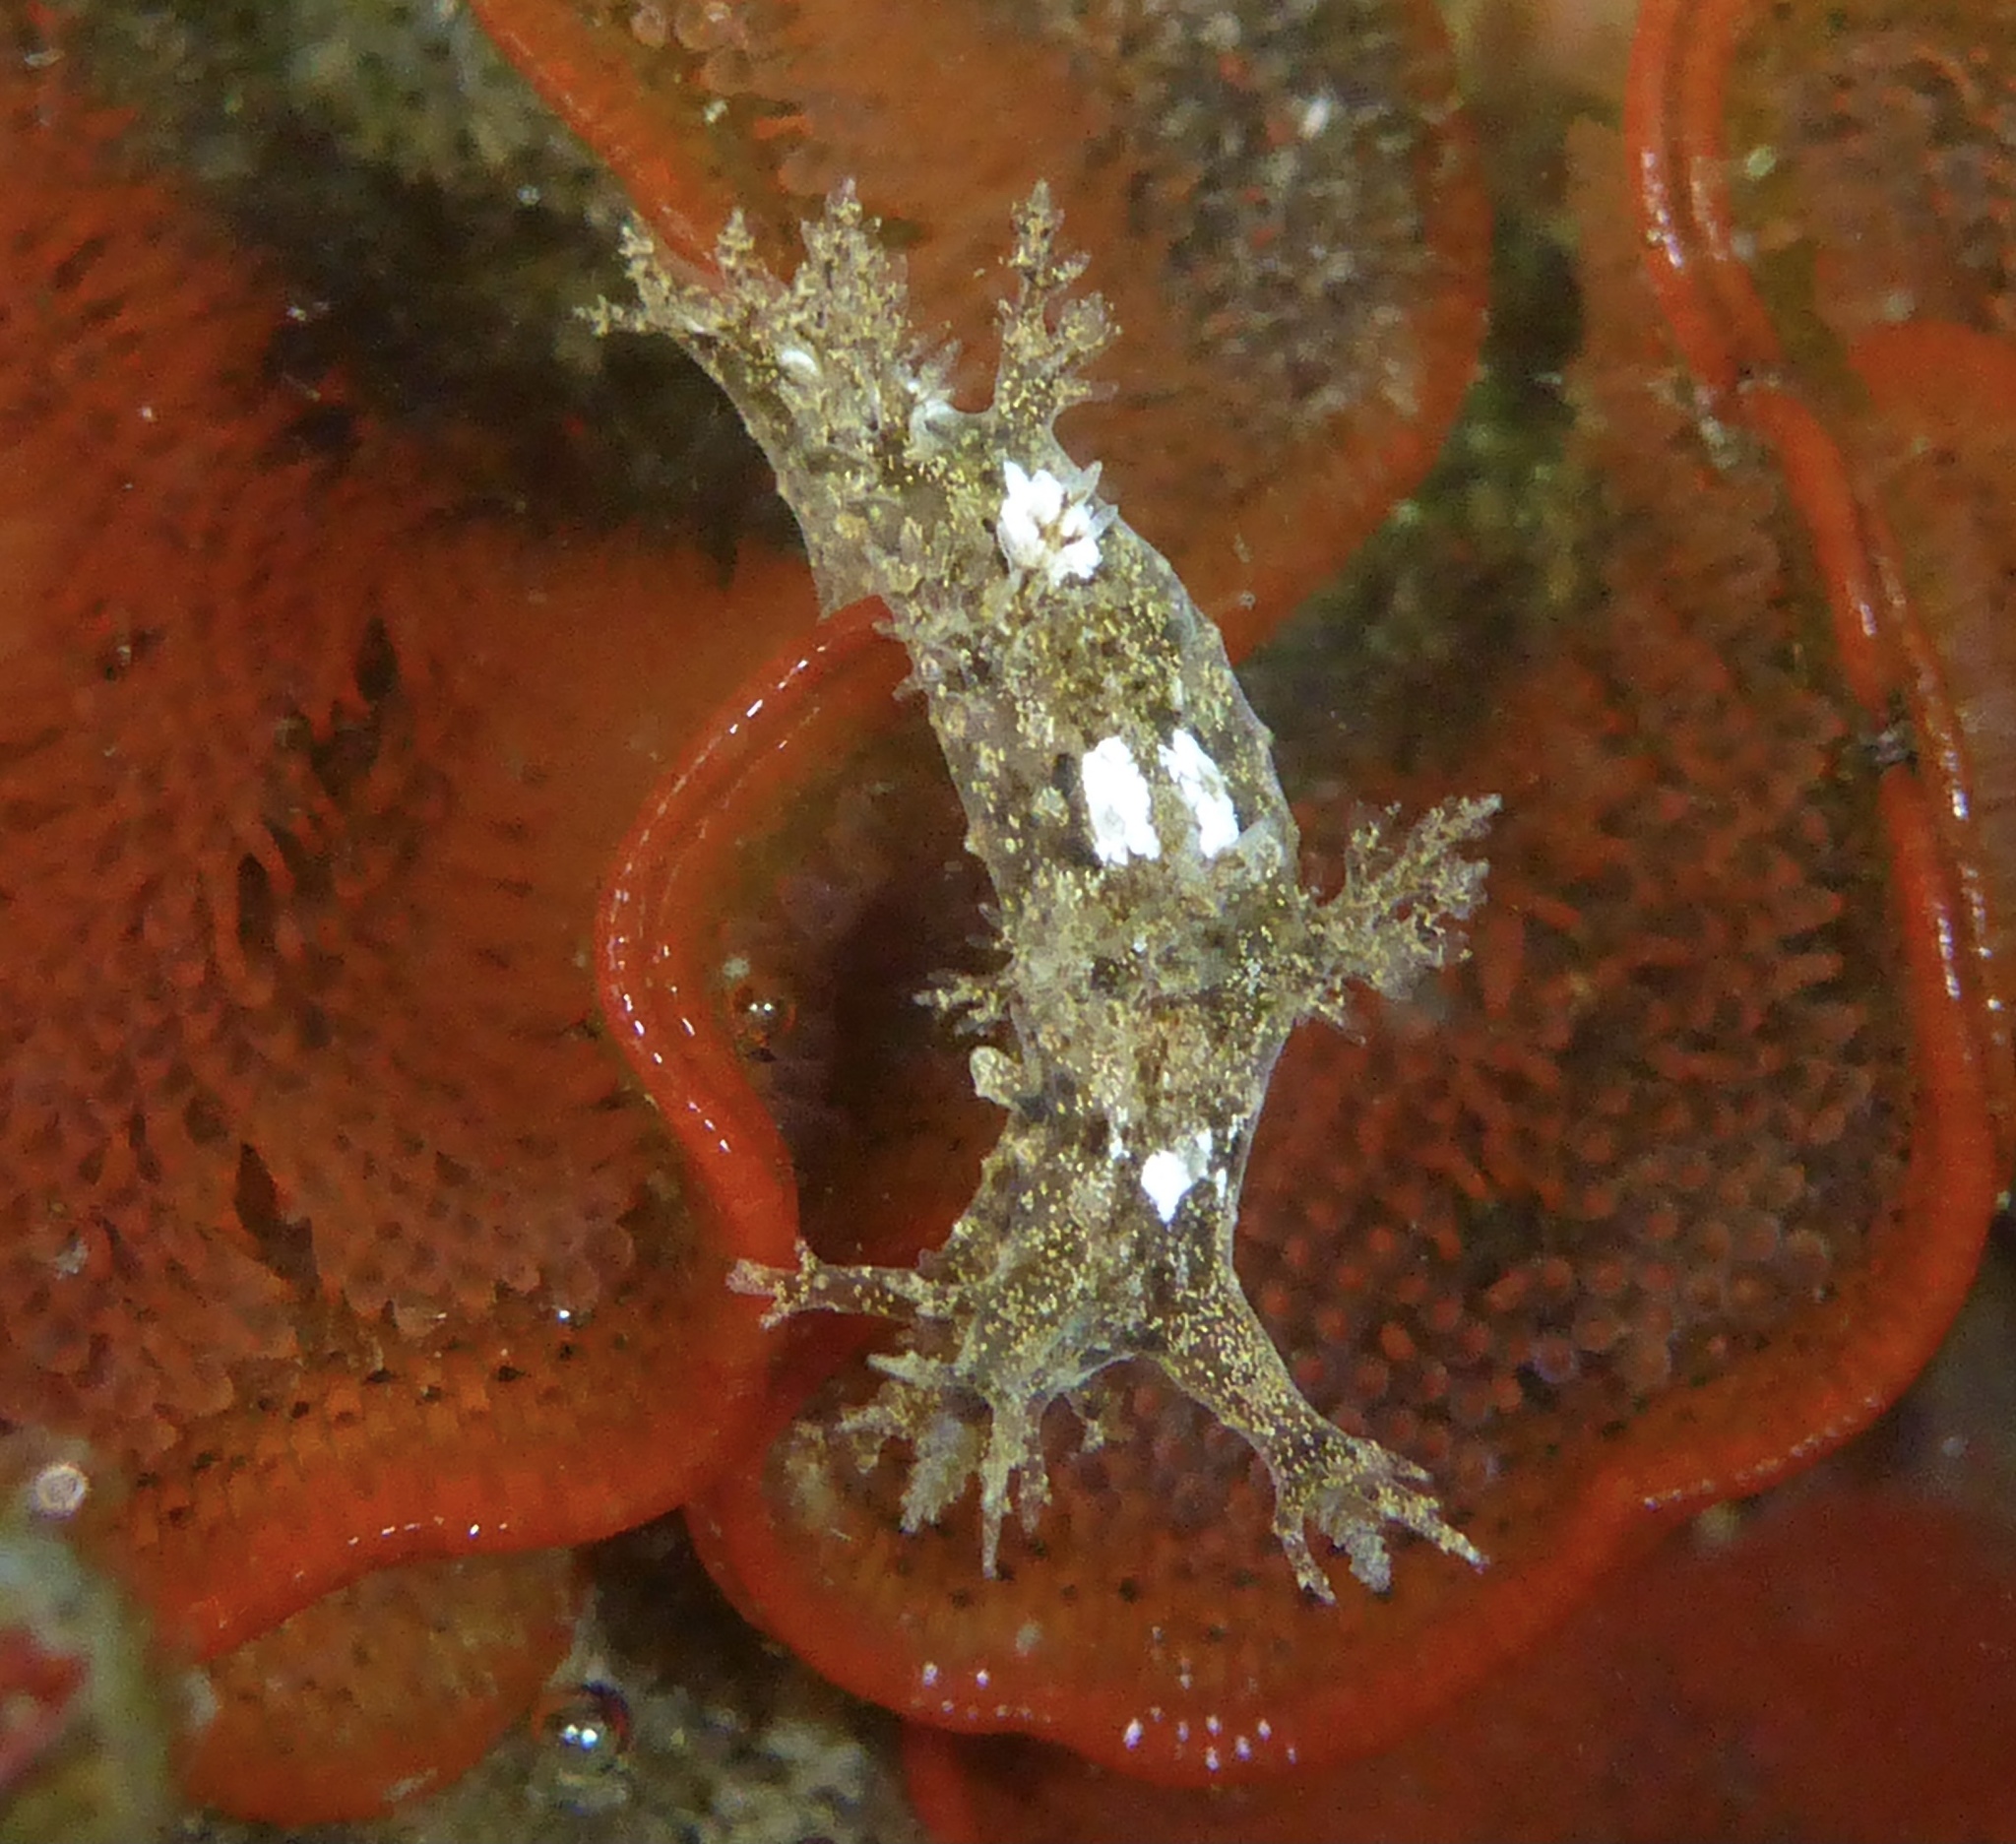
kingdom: Animalia
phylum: Mollusca
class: Gastropoda
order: Nudibranchia
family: Dendronotidae
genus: Dendronotus
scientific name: Dendronotus venustus
